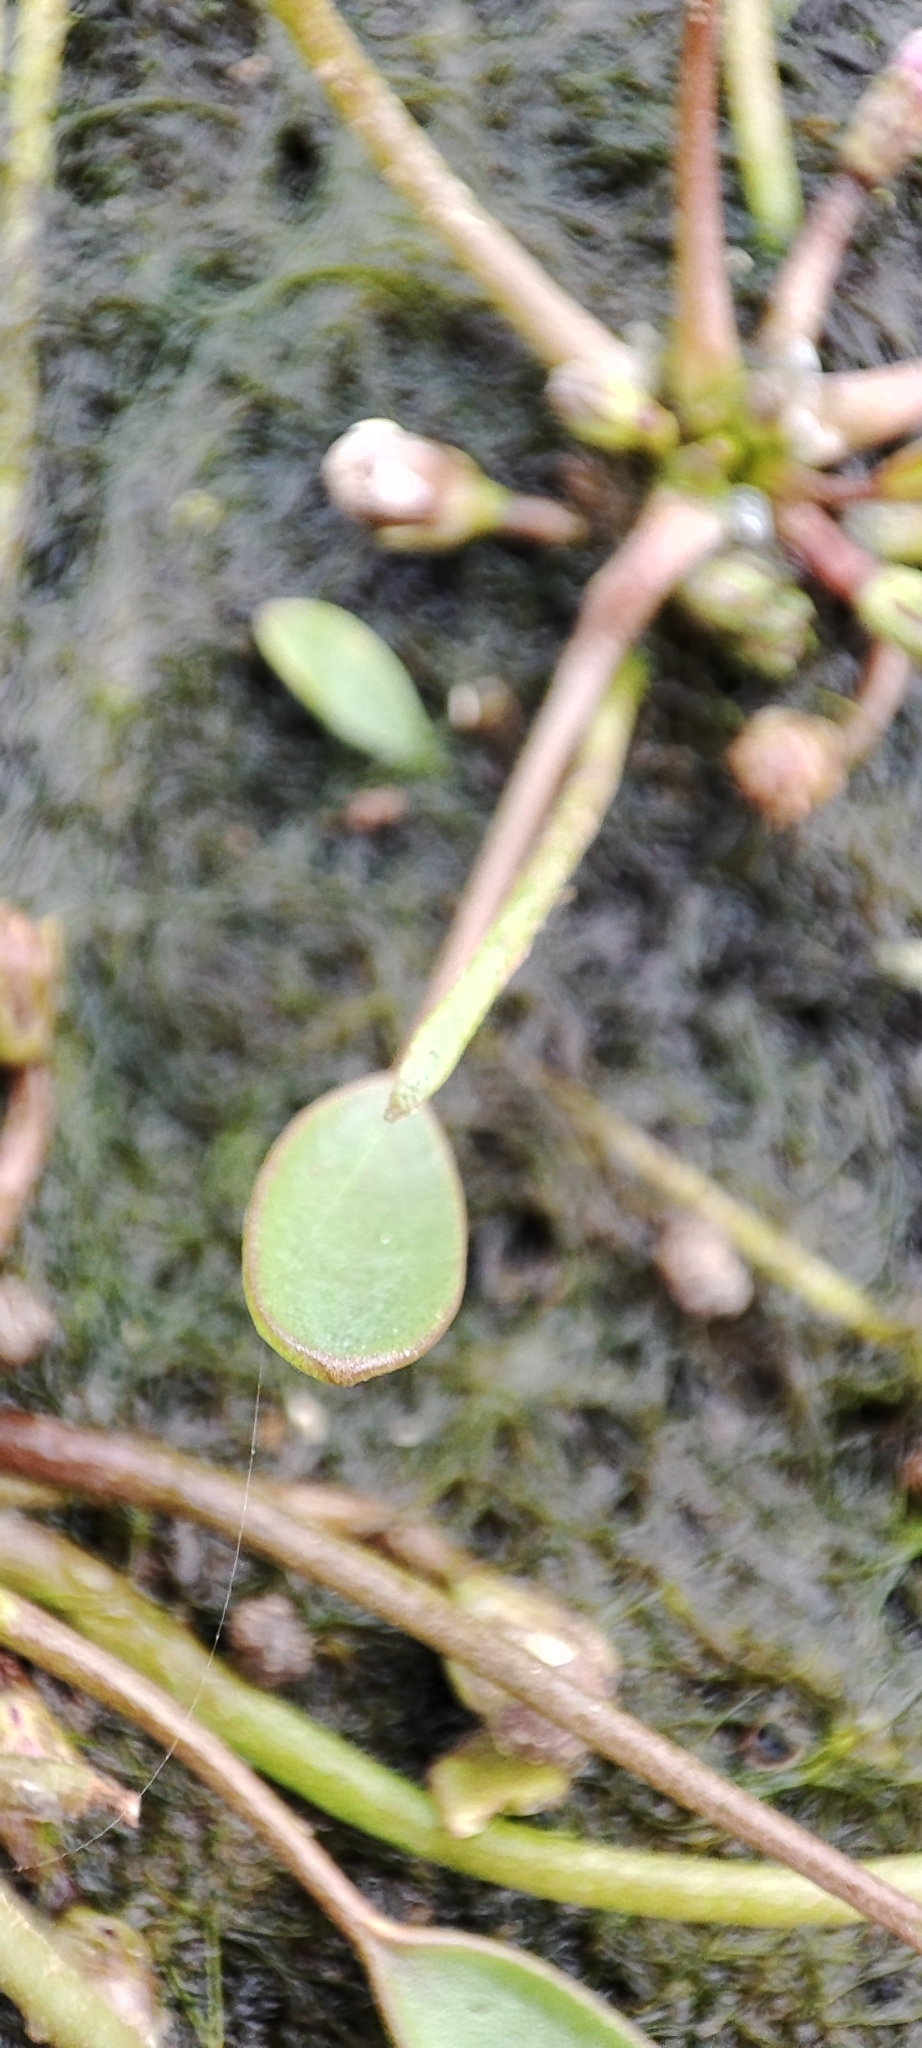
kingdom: Plantae
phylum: Tracheophyta
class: Magnoliopsida
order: Lamiales
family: Scrophulariaceae
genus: Limosella
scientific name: Limosella aquatica
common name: Mudwort
